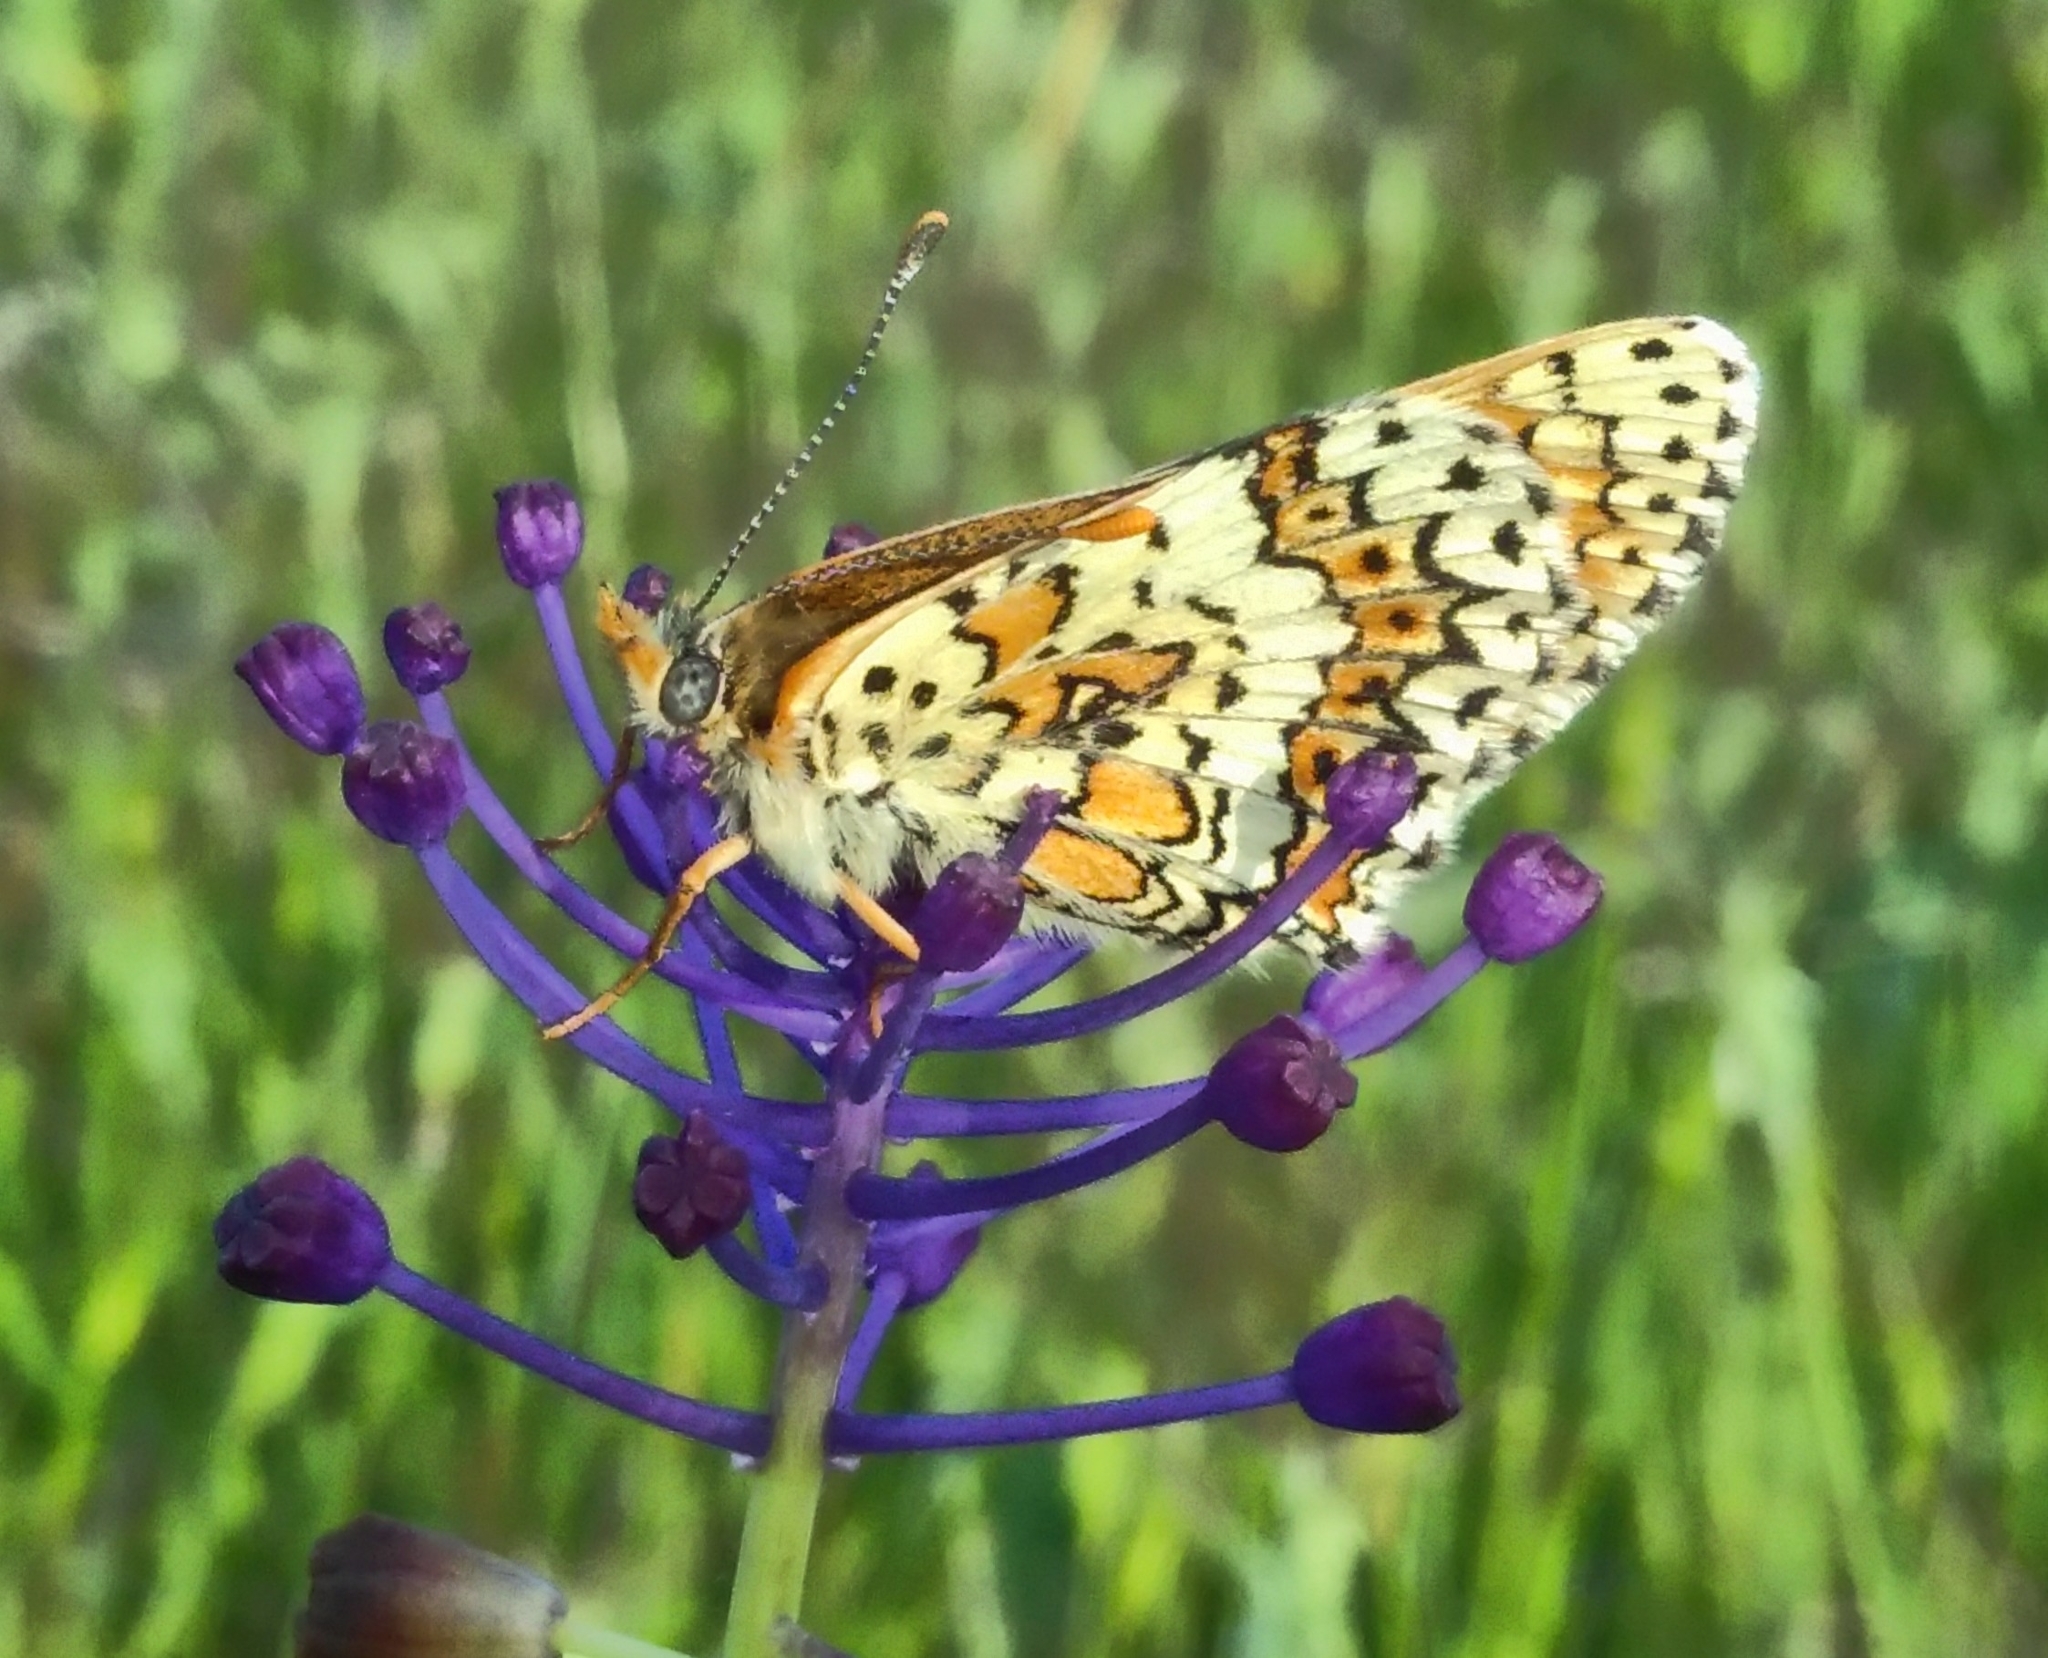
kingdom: Animalia
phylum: Arthropoda
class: Insecta
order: Lepidoptera
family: Nymphalidae
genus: Melitaea
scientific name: Melitaea cinxia
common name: Glanville fritillary
